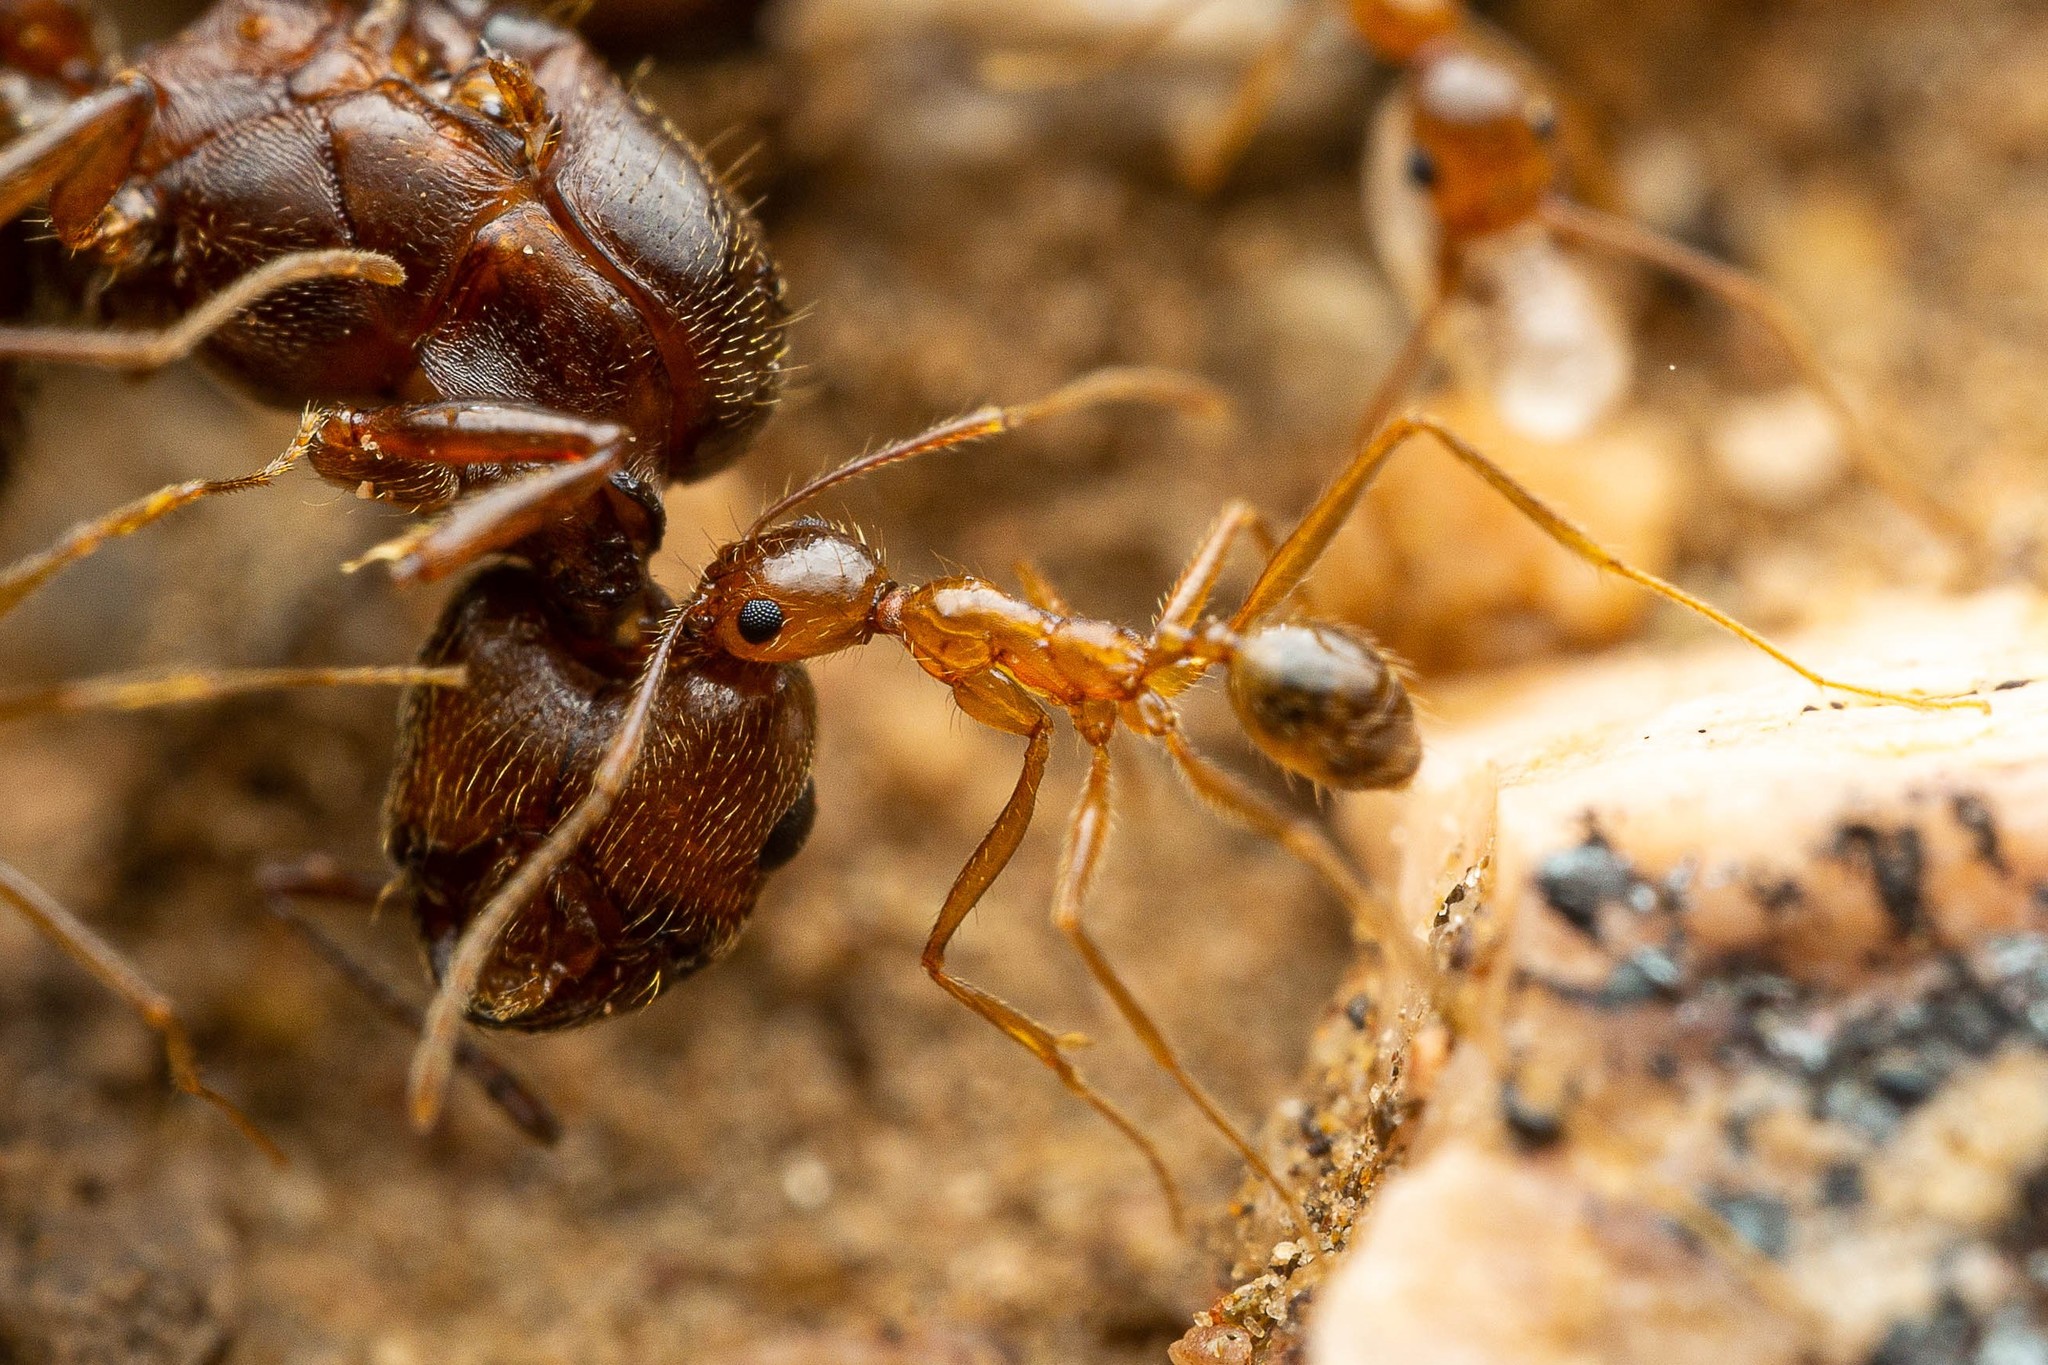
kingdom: Animalia
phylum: Arthropoda
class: Insecta
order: Hymenoptera
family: Formicidae
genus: Pheidole
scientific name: Pheidole desertorum
